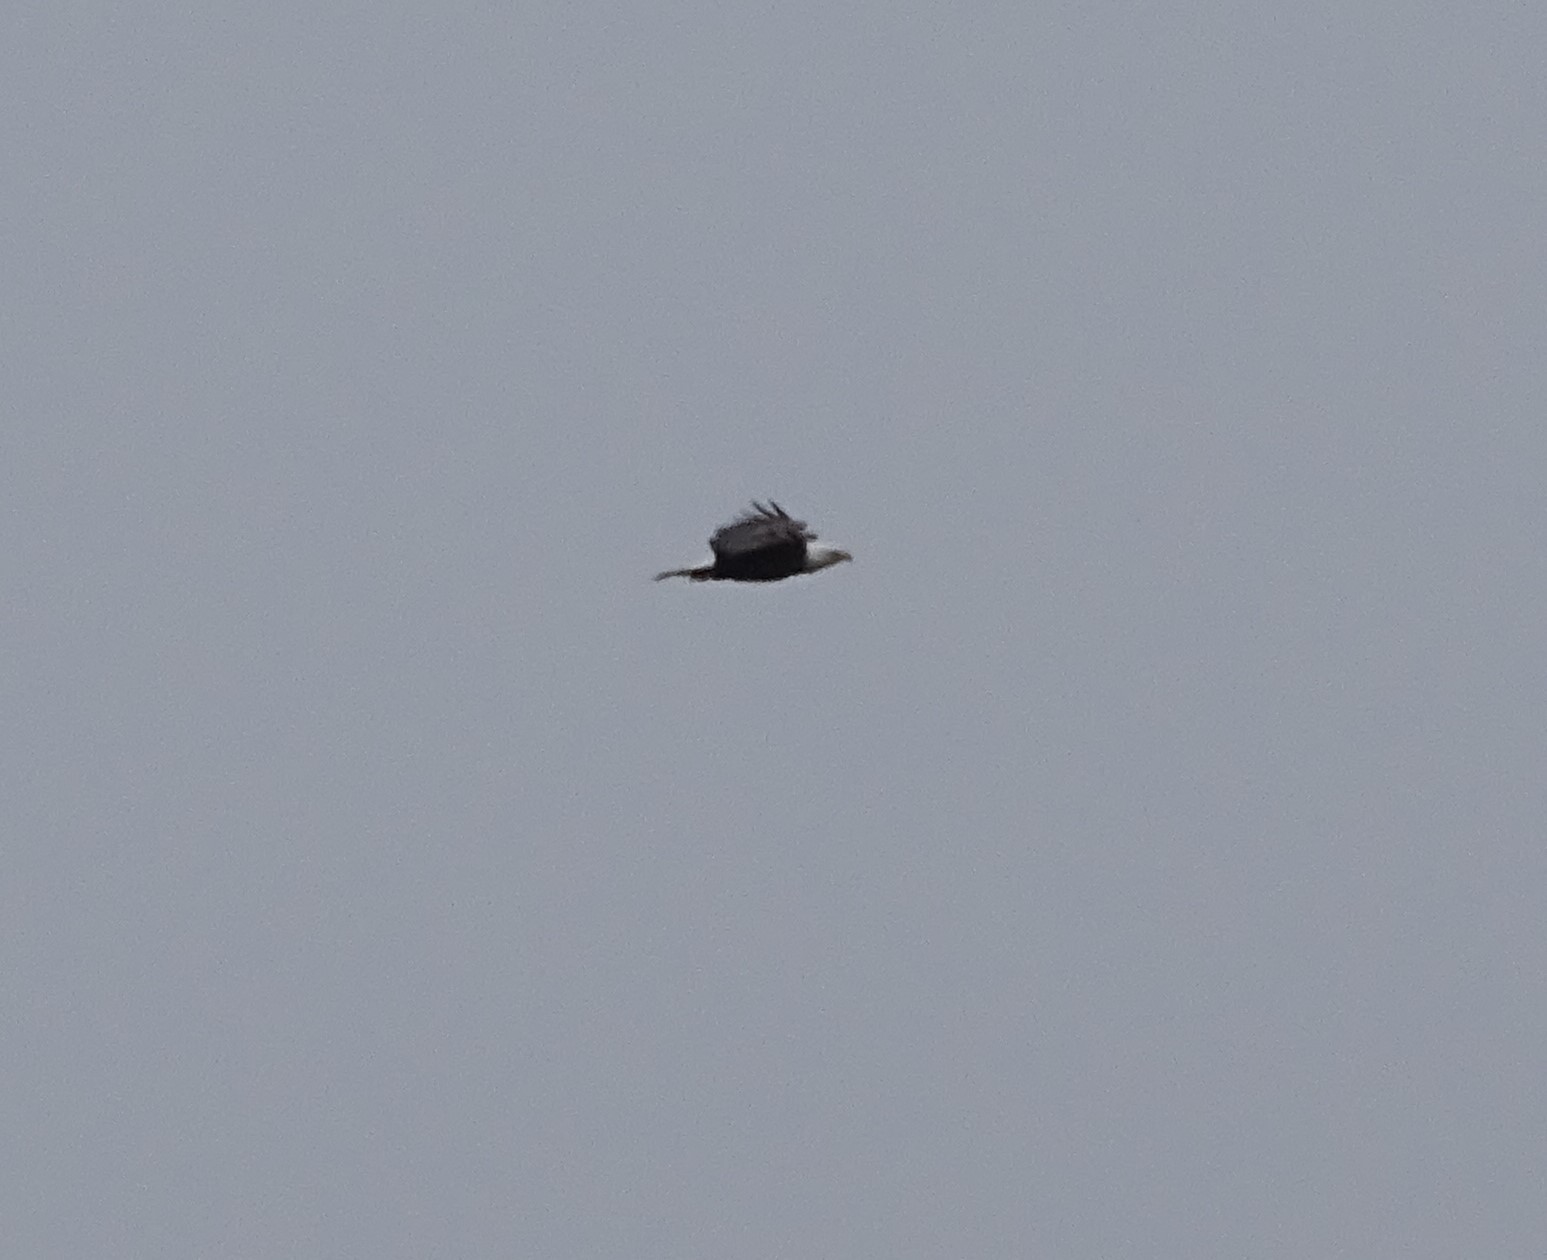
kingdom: Animalia
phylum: Chordata
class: Aves
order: Accipitriformes
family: Accipitridae
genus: Haliaeetus
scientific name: Haliaeetus leucocephalus
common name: Bald eagle
